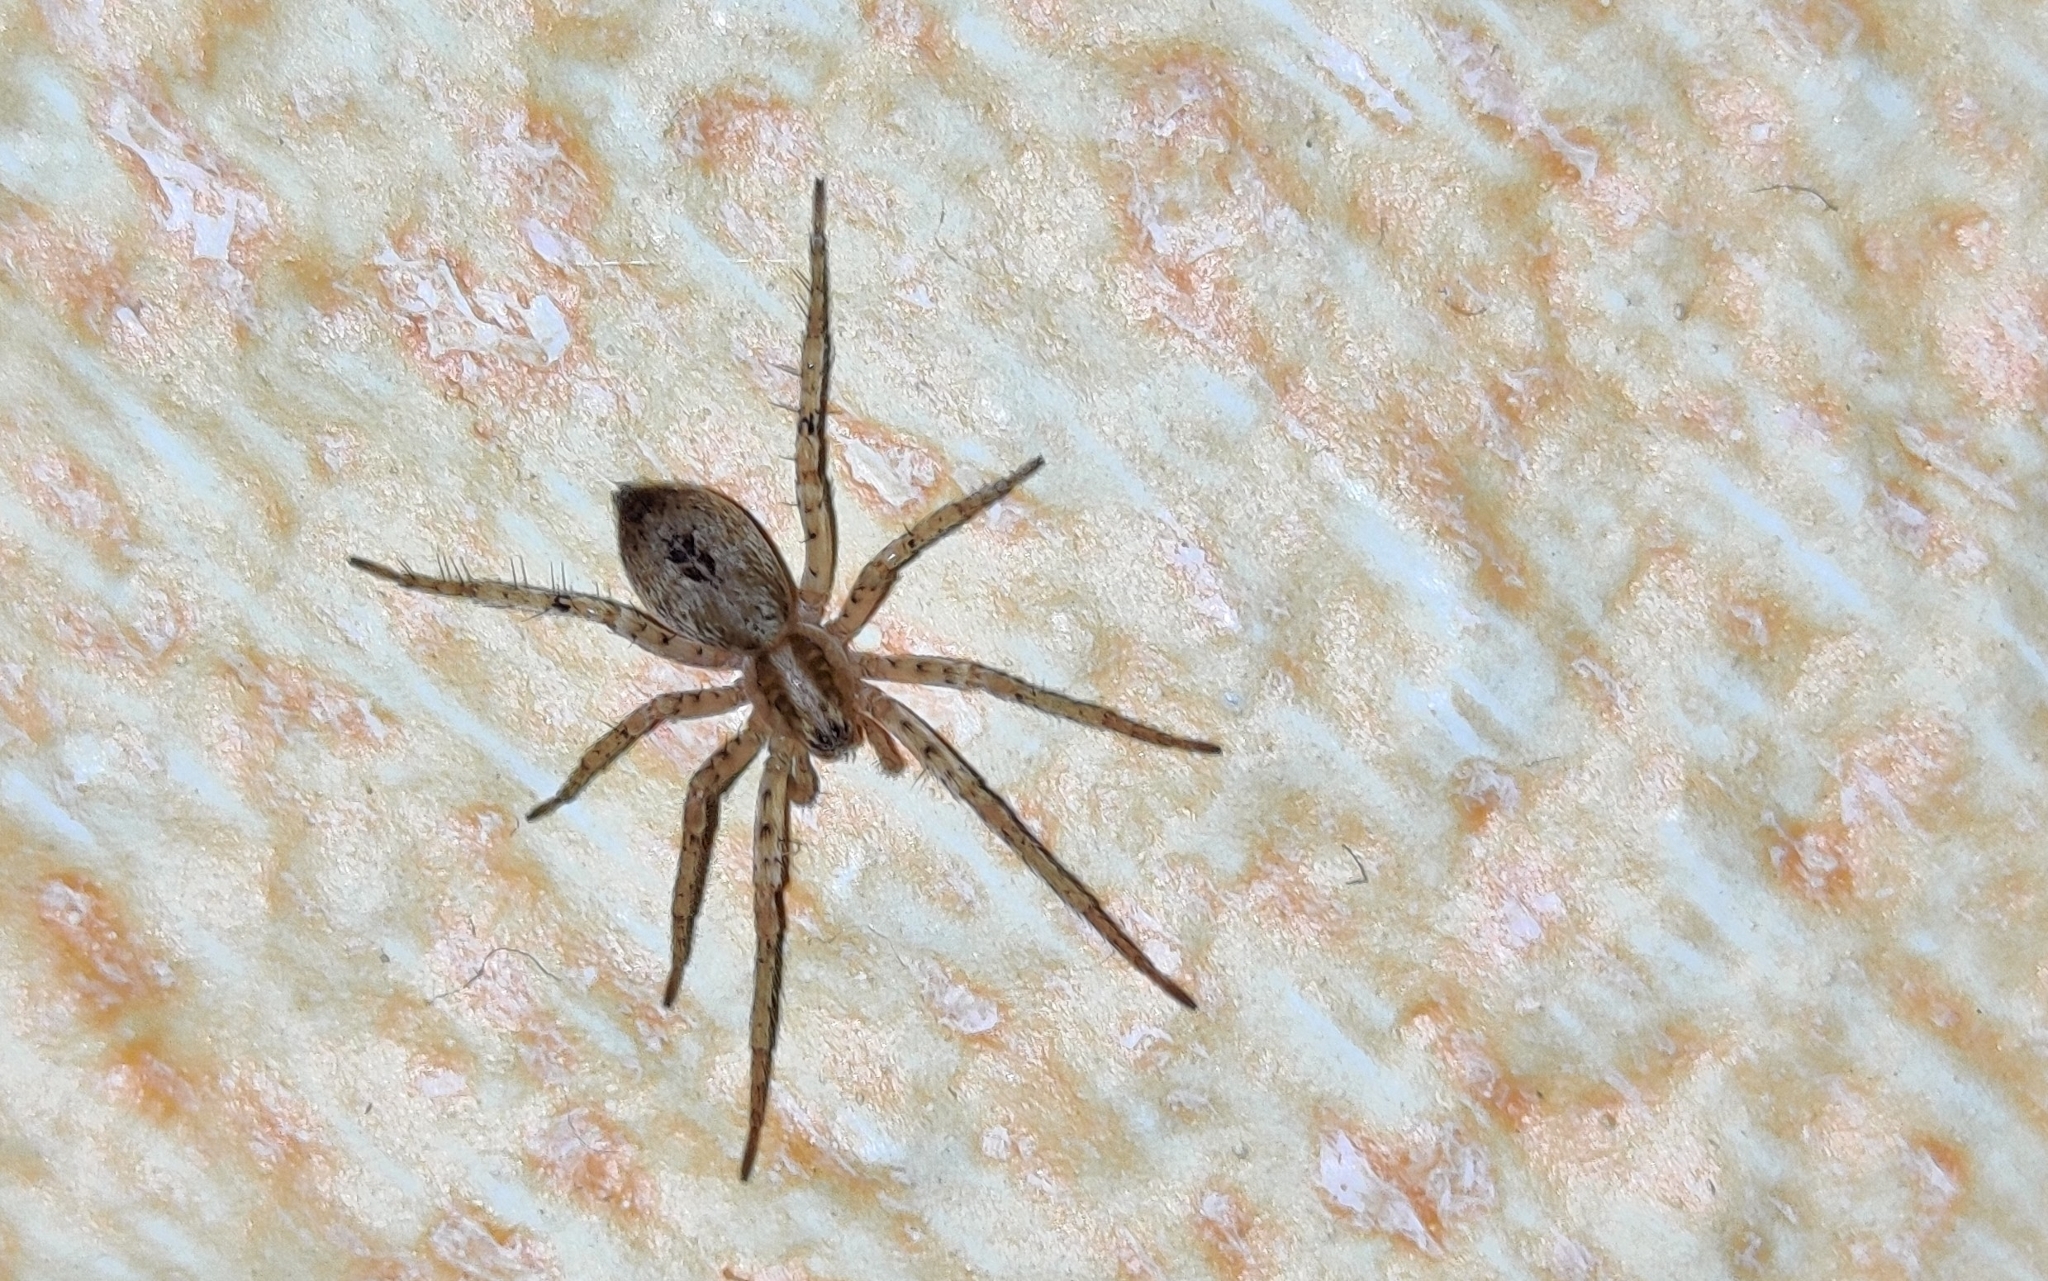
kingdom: Animalia
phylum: Arthropoda
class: Arachnida
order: Araneae
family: Anyphaenidae
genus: Anyphaena
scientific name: Anyphaena accentuata
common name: Buzzing spider
